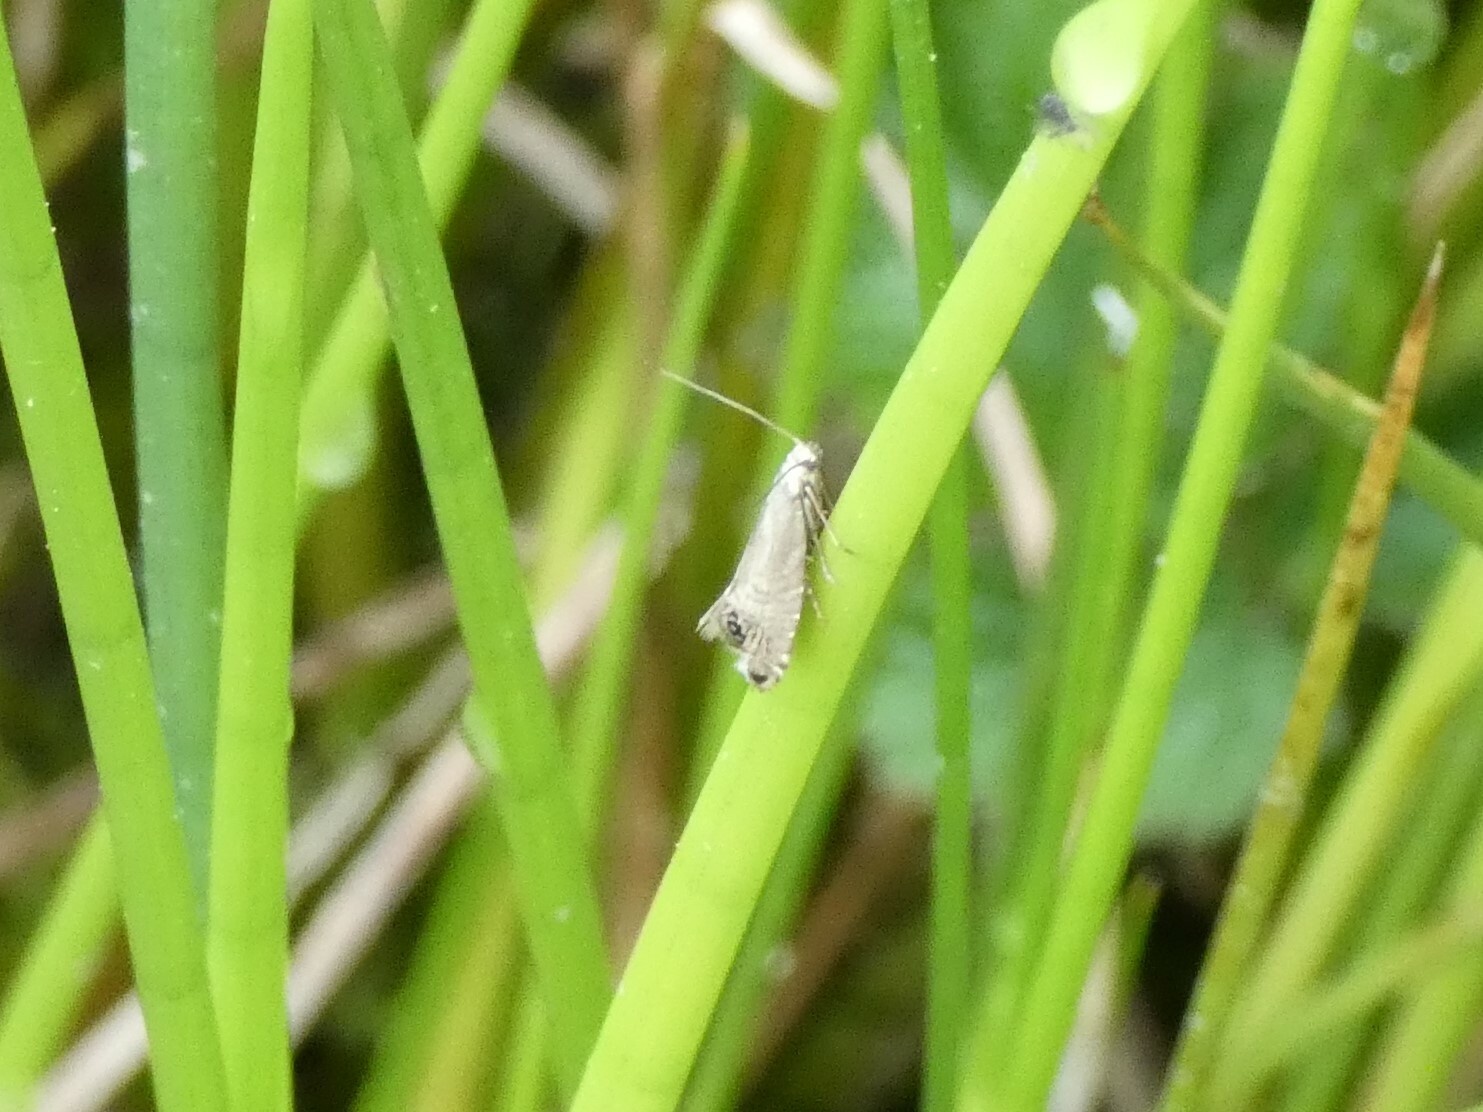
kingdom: Animalia
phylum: Arthropoda
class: Insecta
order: Lepidoptera
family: Glyphipterigidae
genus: Glyphipterix
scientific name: Glyphipterix thrasonella
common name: Speckled fanner
